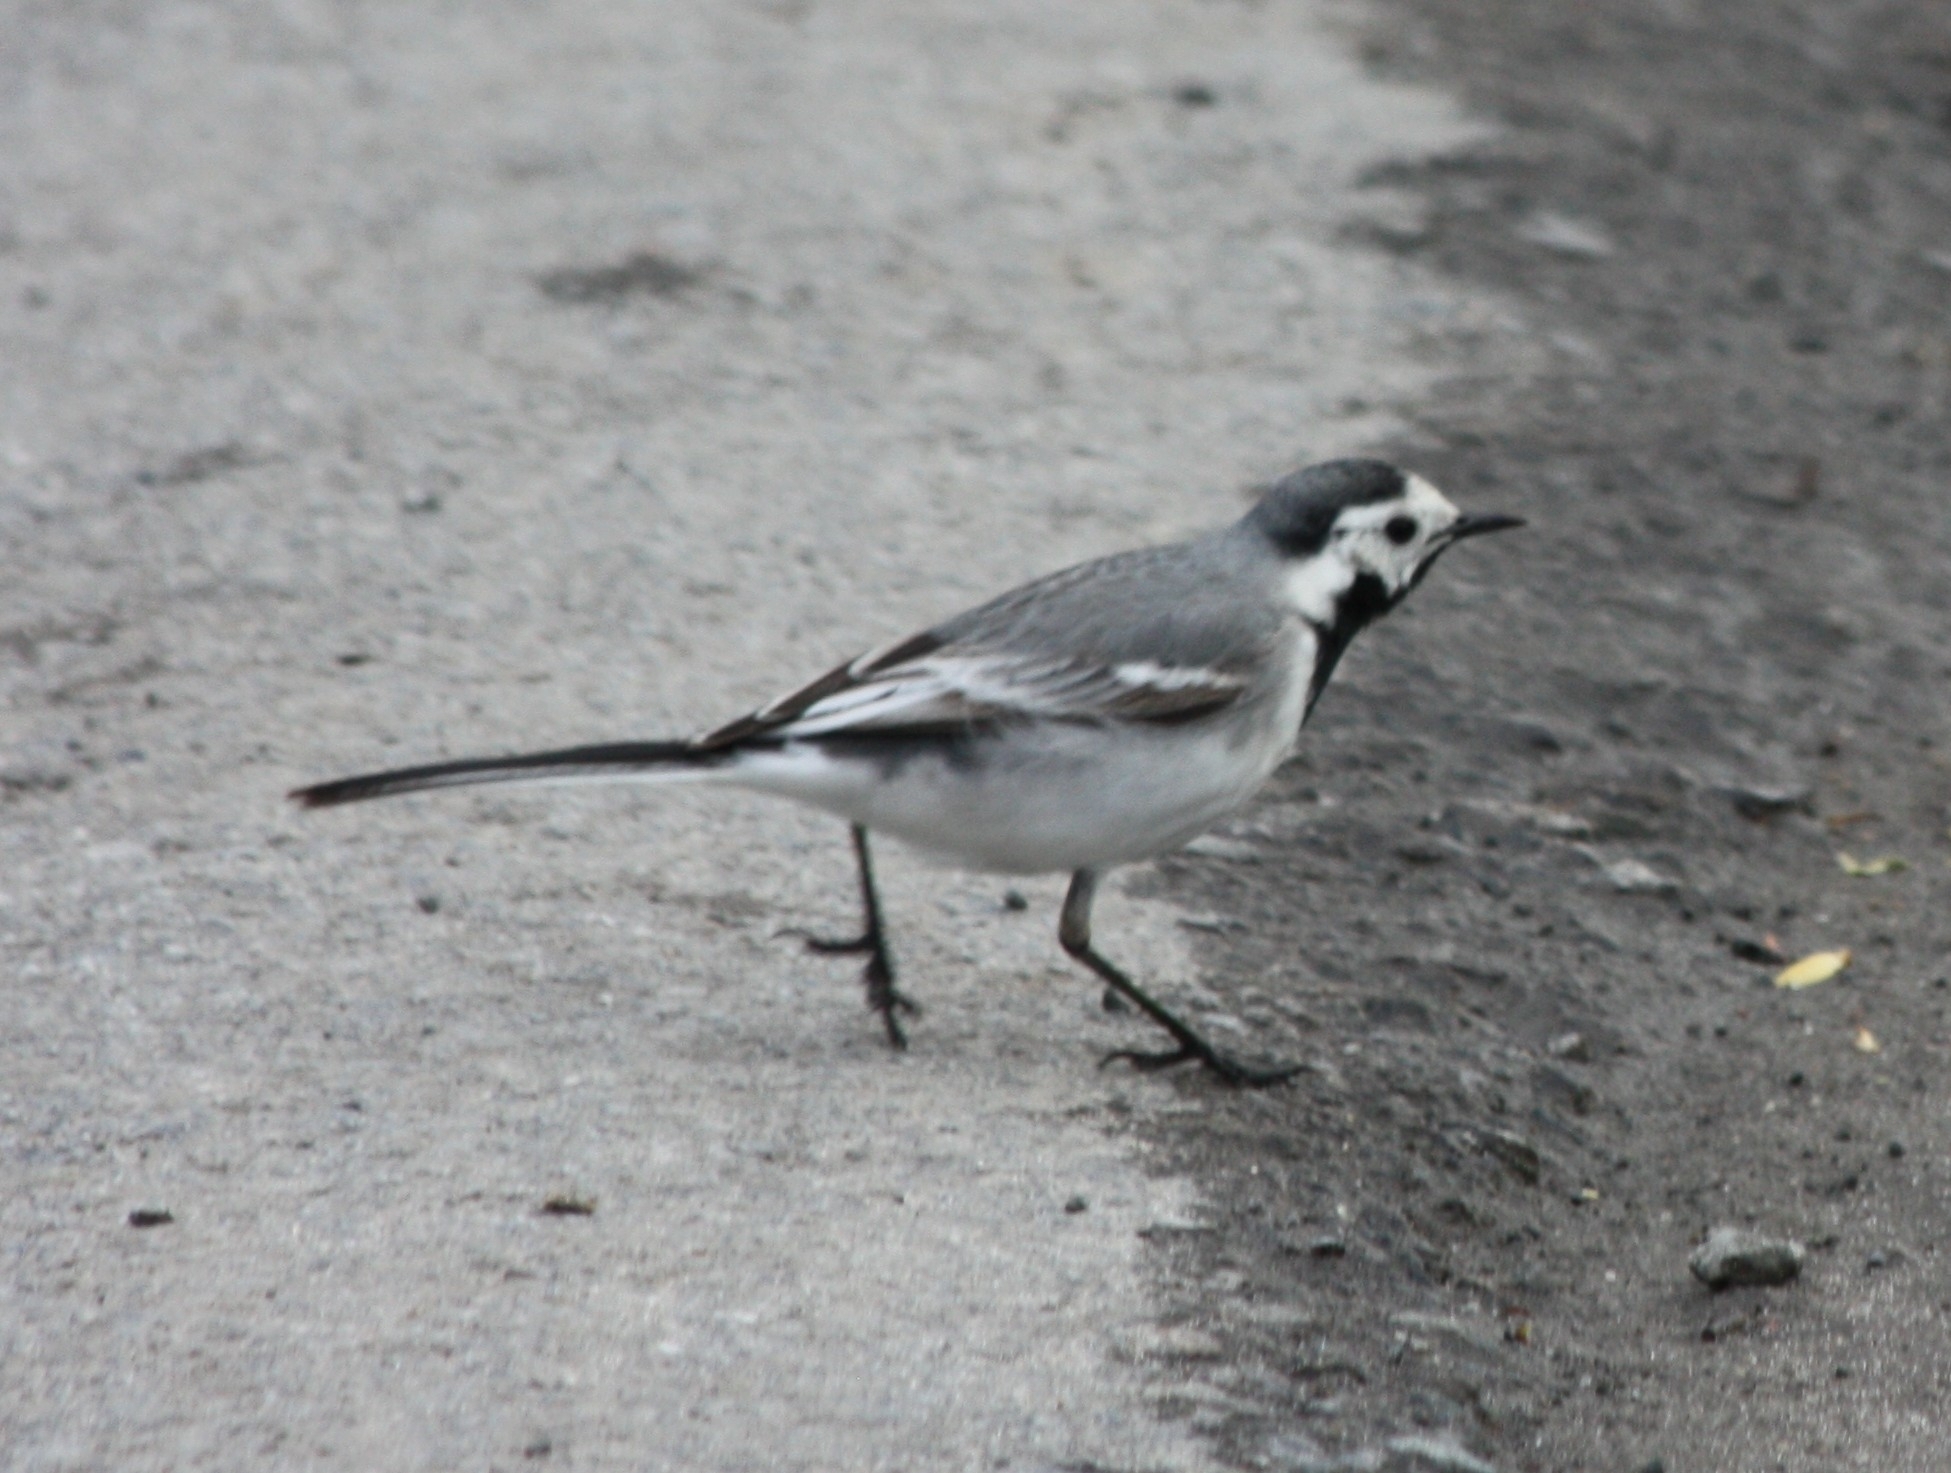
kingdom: Animalia
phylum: Chordata
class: Aves
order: Passeriformes
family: Motacillidae
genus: Motacilla
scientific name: Motacilla alba
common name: White wagtail
